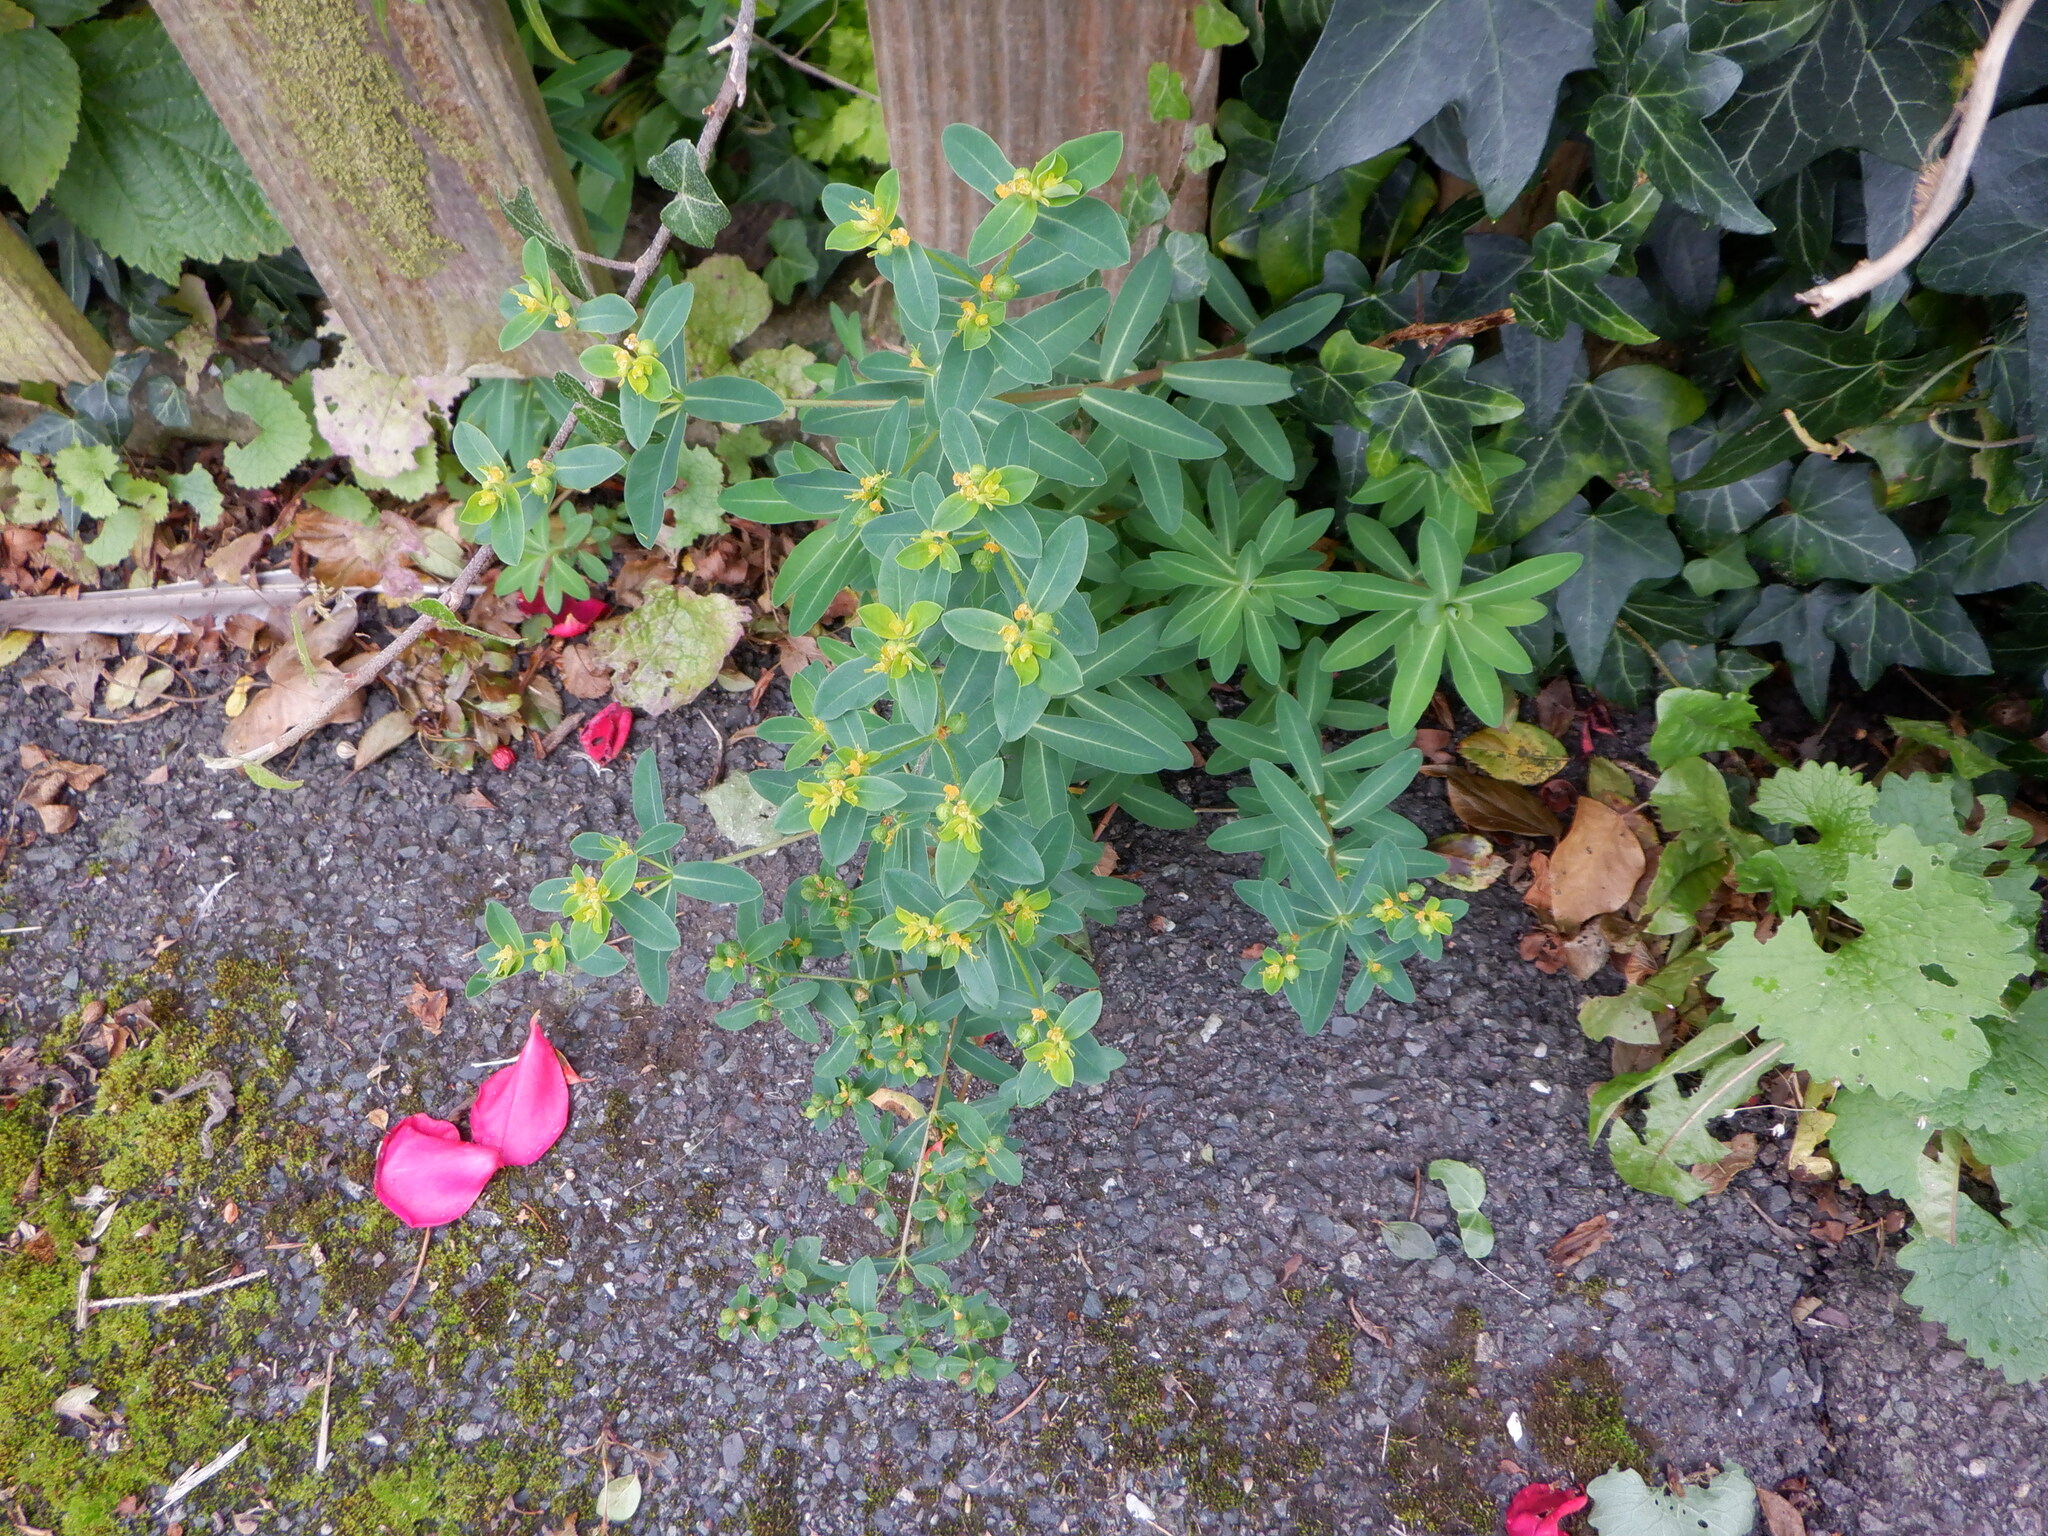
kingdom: Plantae
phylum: Tracheophyta
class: Magnoliopsida
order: Malpighiales
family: Euphorbiaceae
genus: Euphorbia
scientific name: Euphorbia oblongata
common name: Balkan spurge
